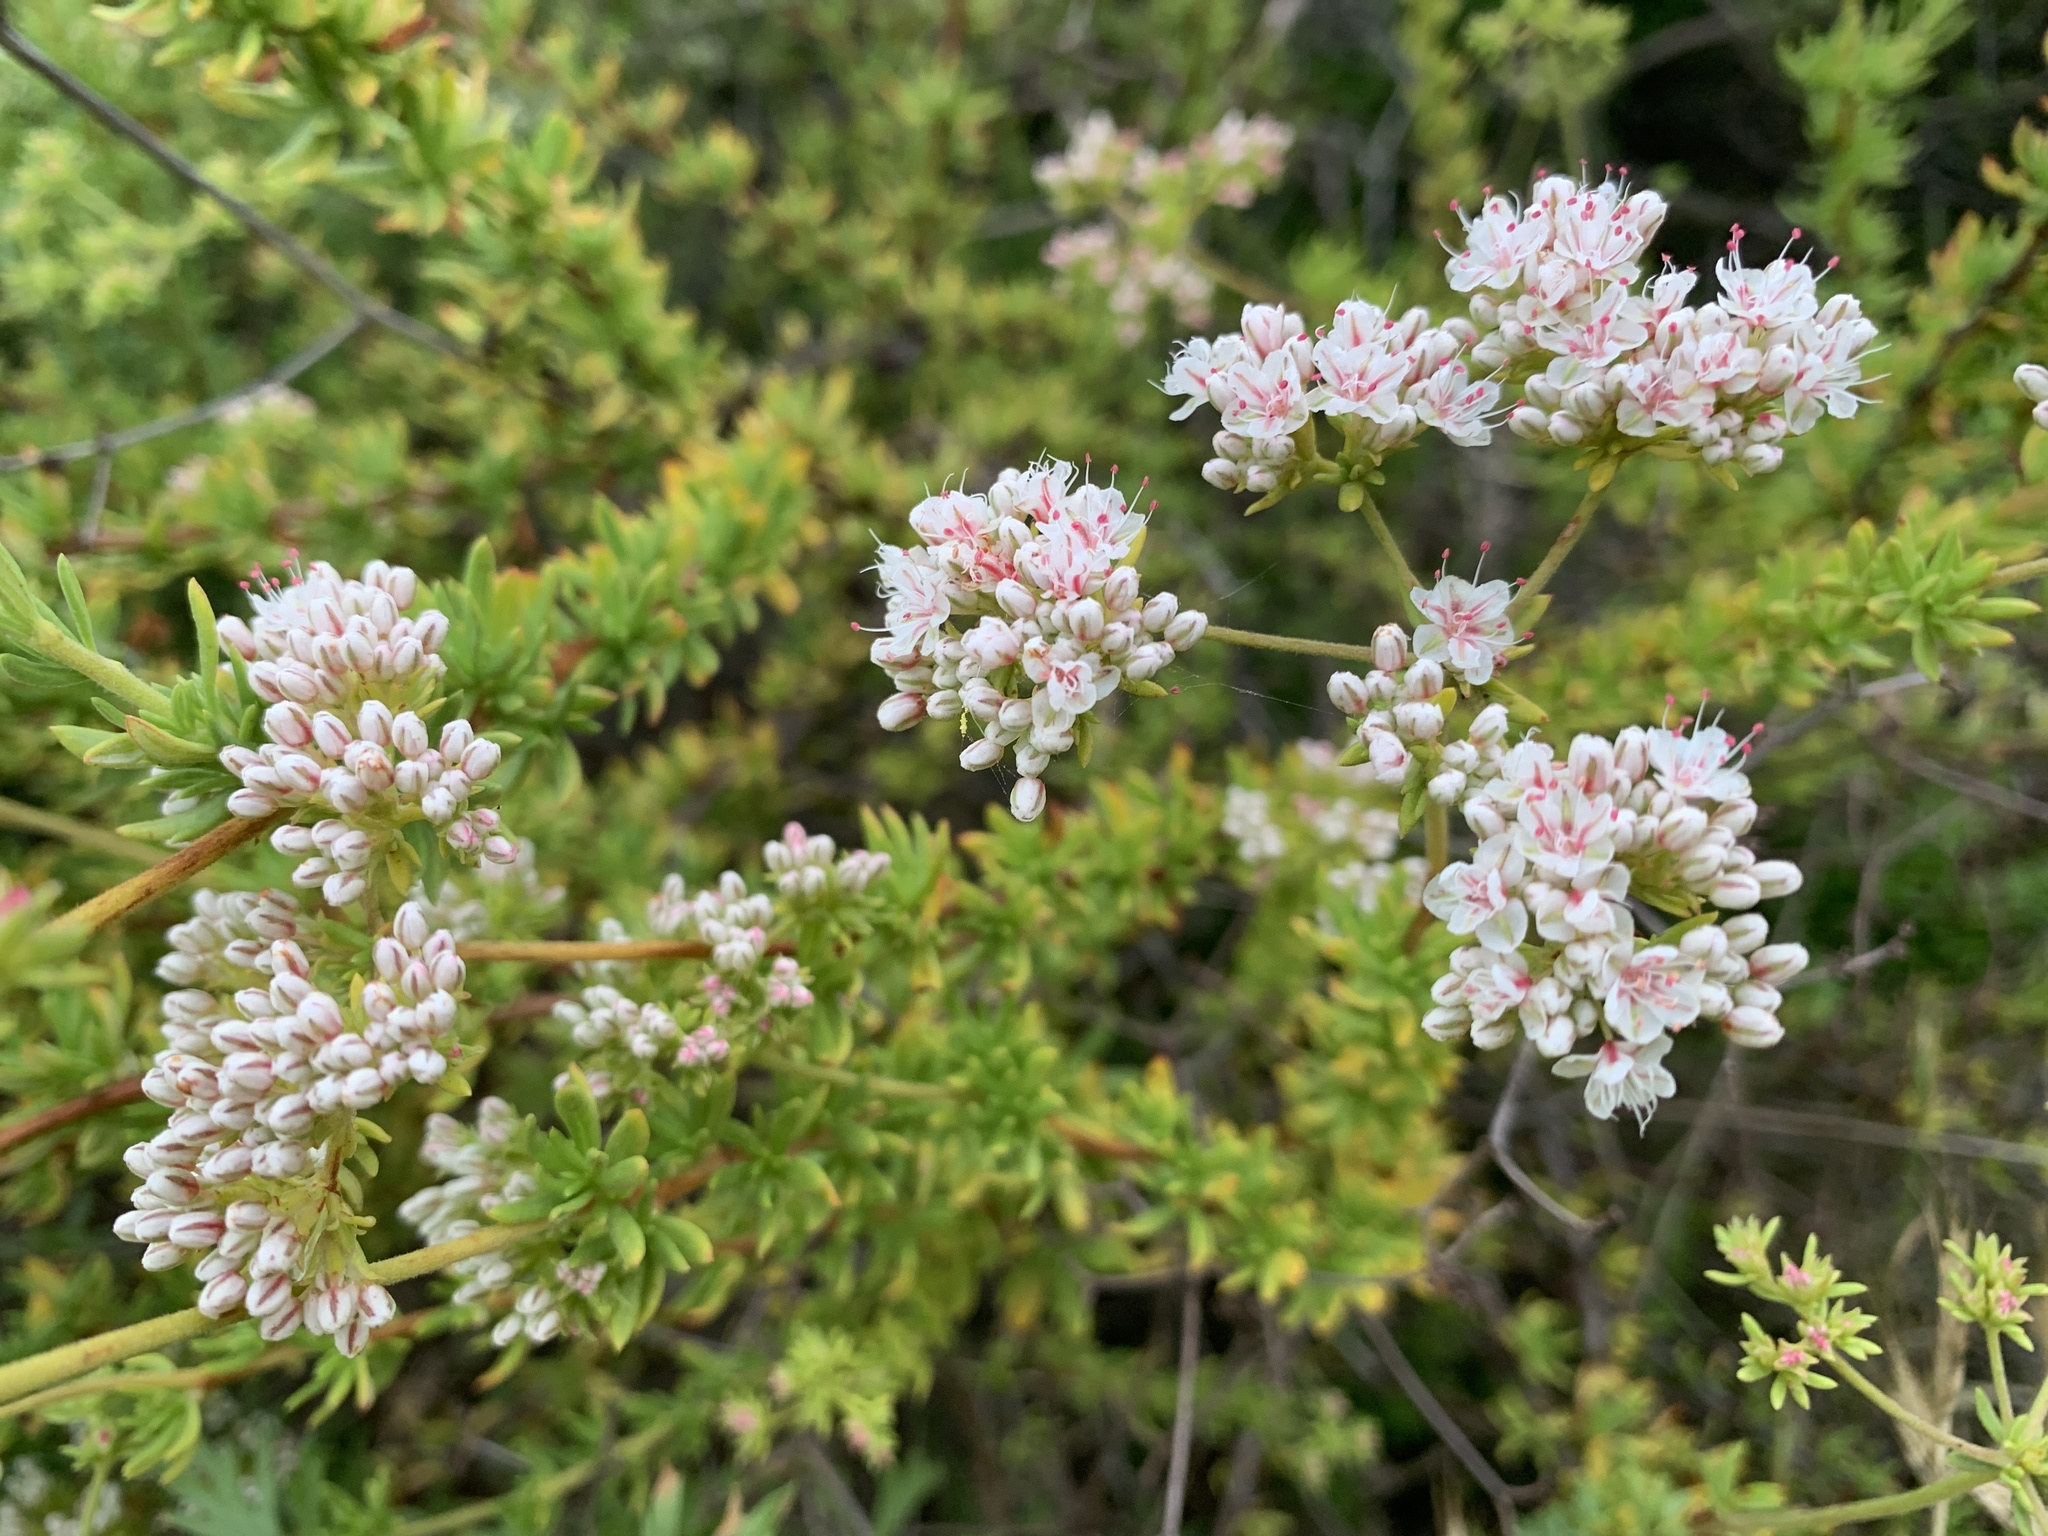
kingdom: Plantae
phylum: Tracheophyta
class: Magnoliopsida
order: Caryophyllales
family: Polygonaceae
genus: Eriogonum
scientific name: Eriogonum fasciculatum
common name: California wild buckwheat
